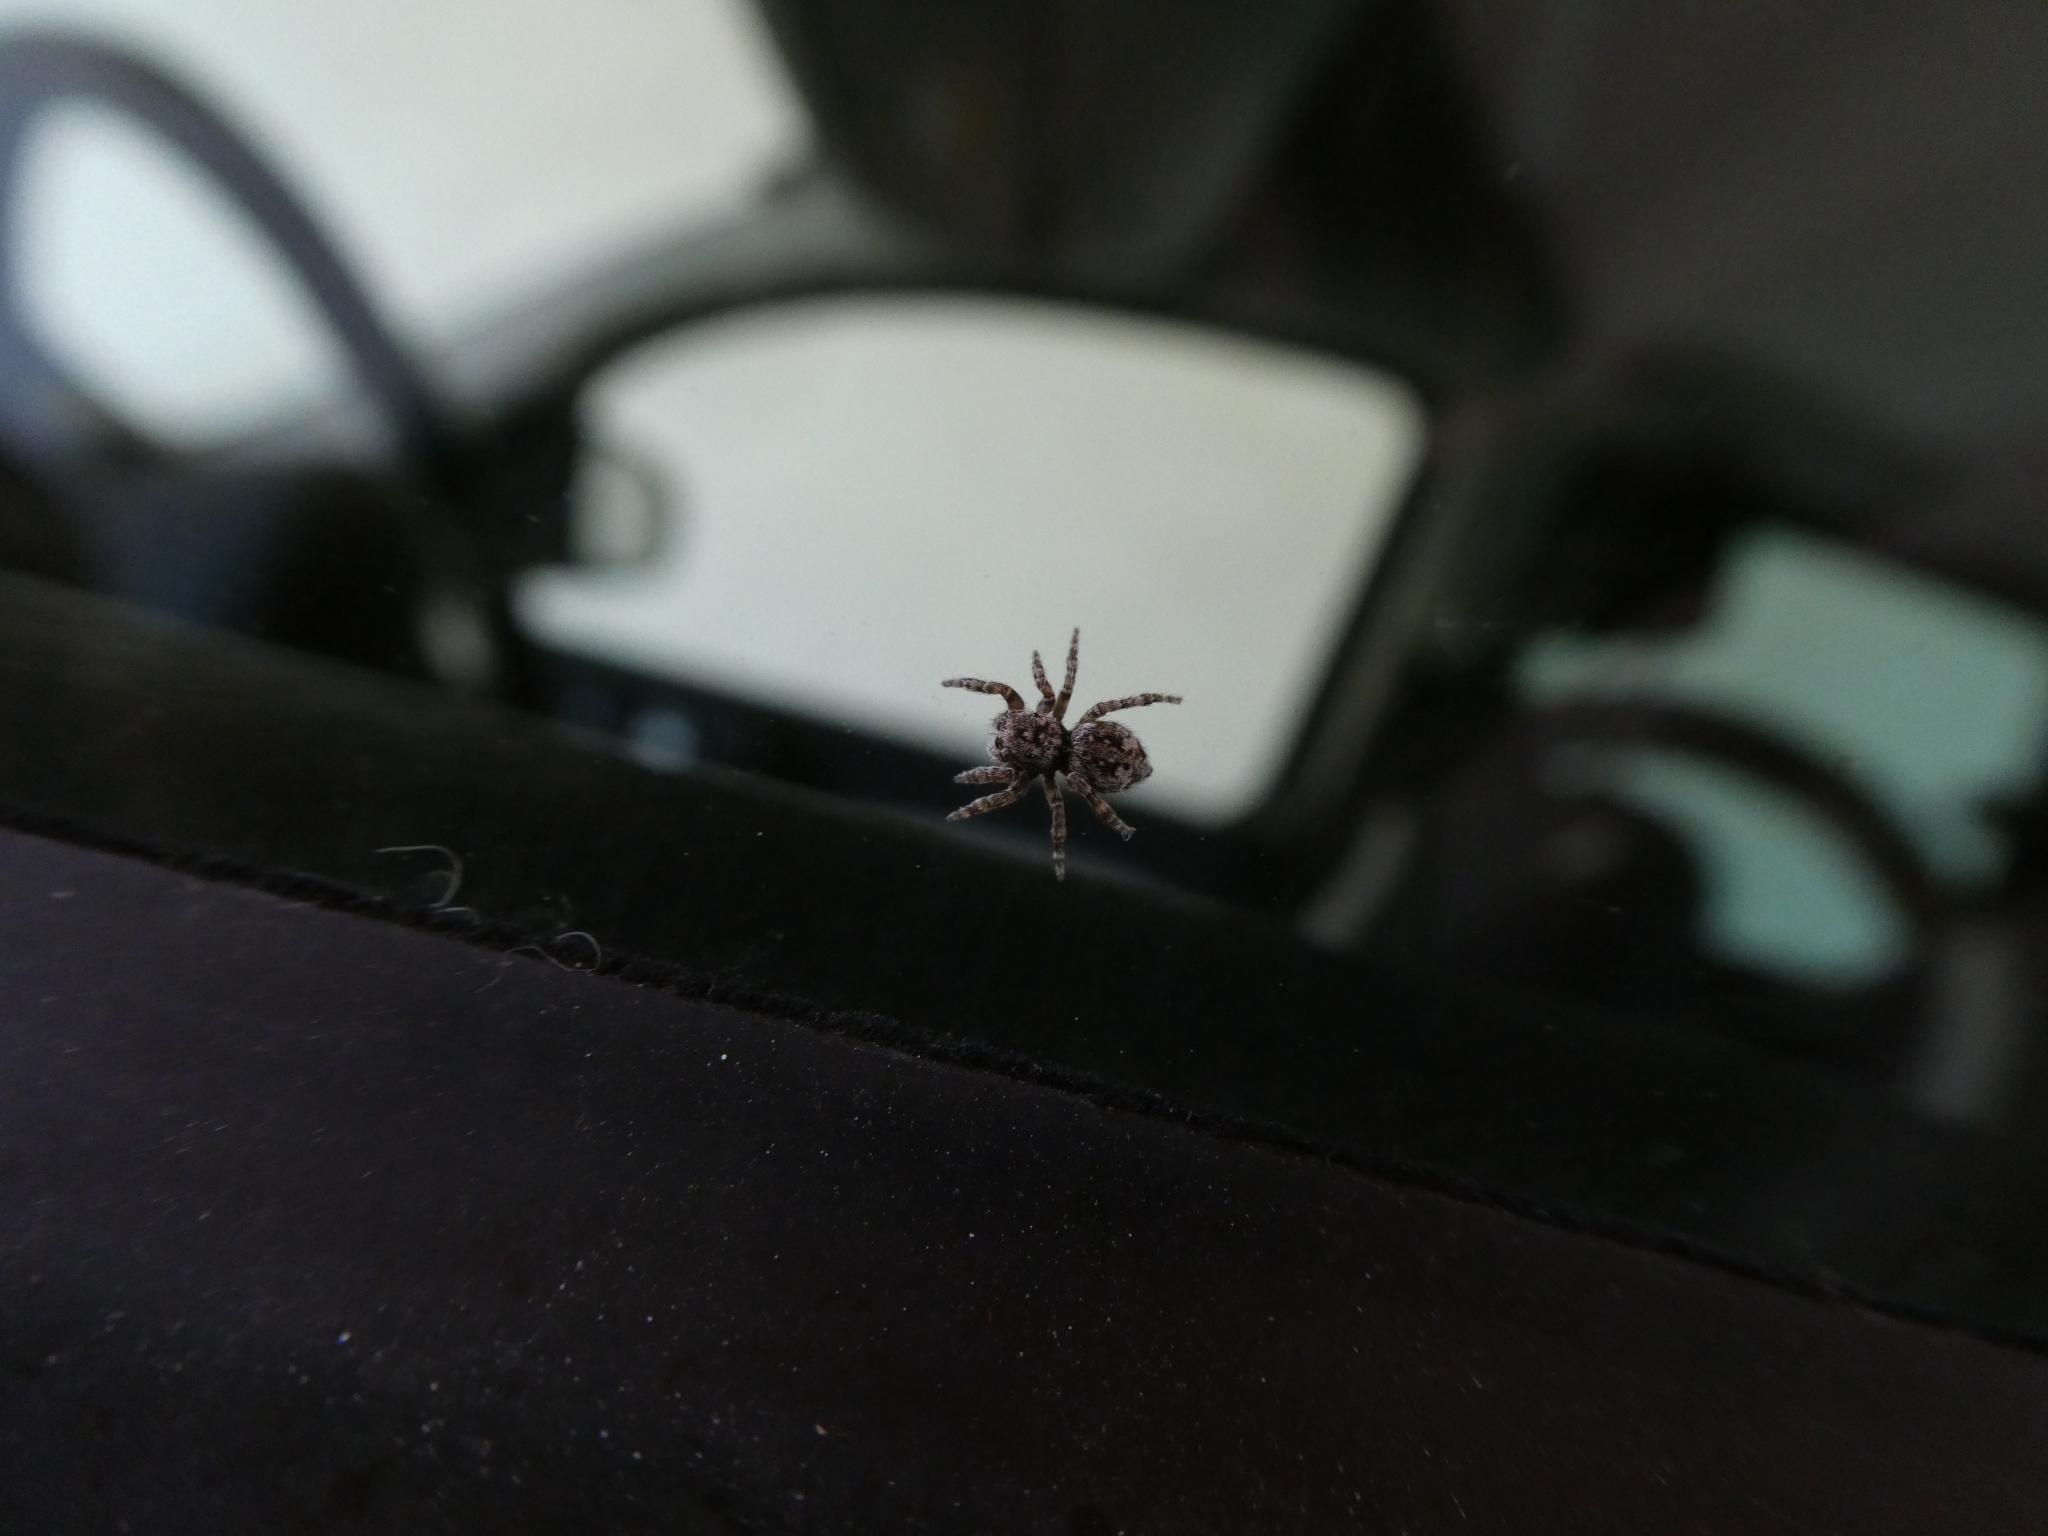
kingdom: Animalia
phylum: Arthropoda
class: Arachnida
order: Araneae
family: Salticidae
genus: Attulus
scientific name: Attulus pubescens
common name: Jumping spider
